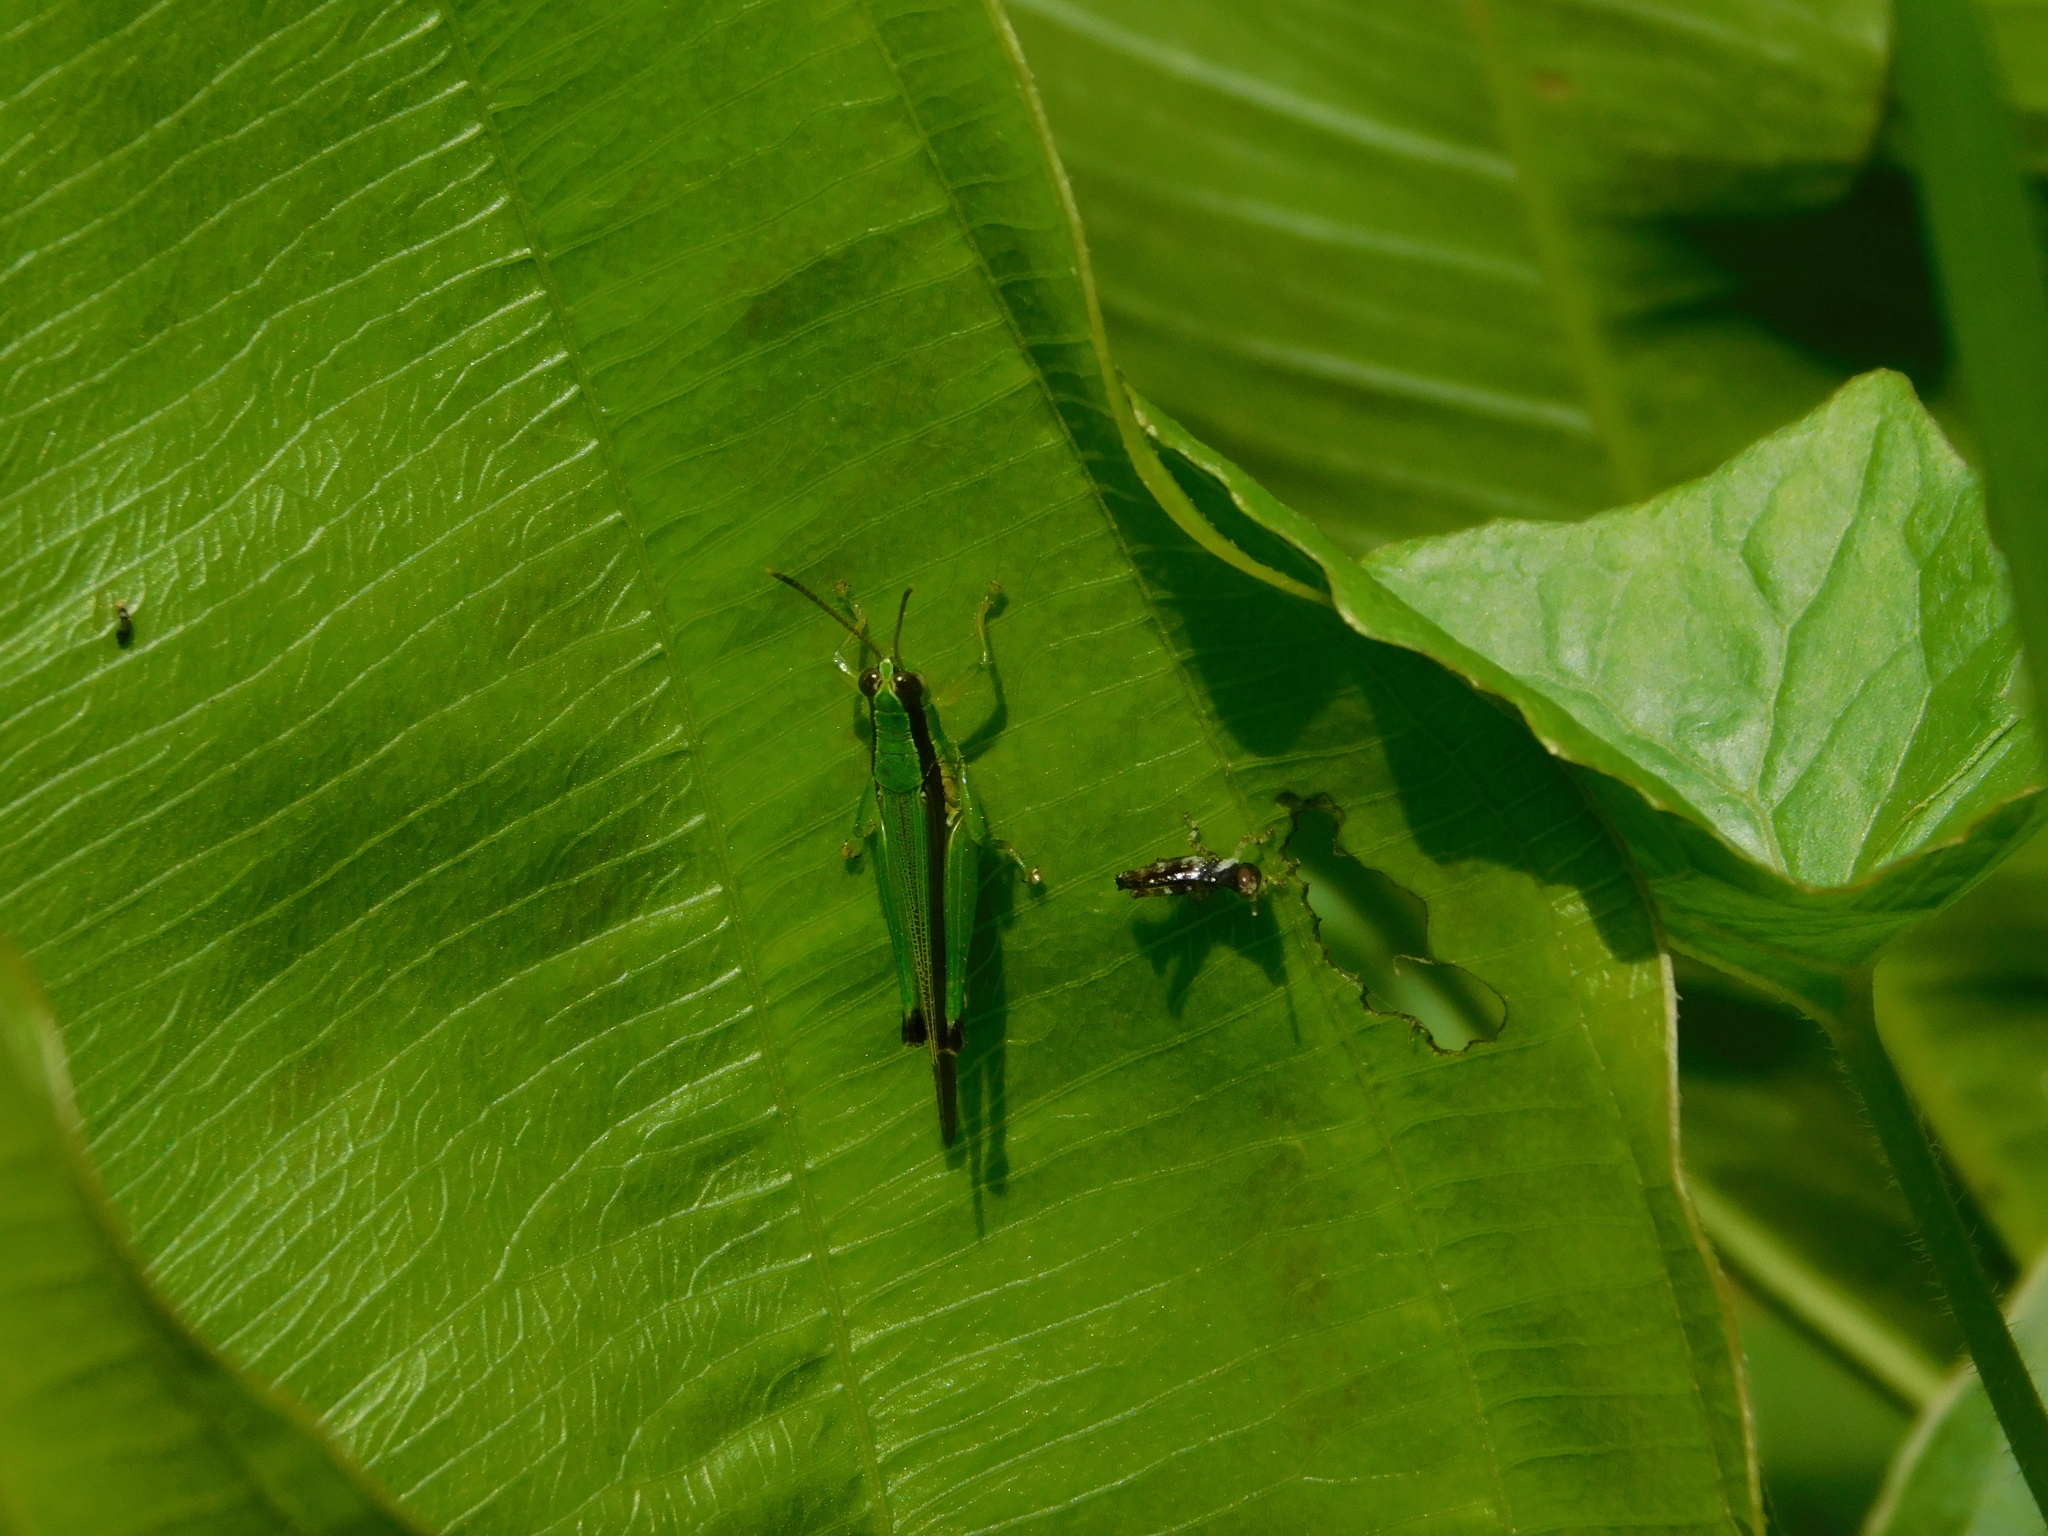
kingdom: Animalia
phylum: Arthropoda
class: Insecta
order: Orthoptera
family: Acrididae
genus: Gesonula
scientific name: Gesonula mundata
